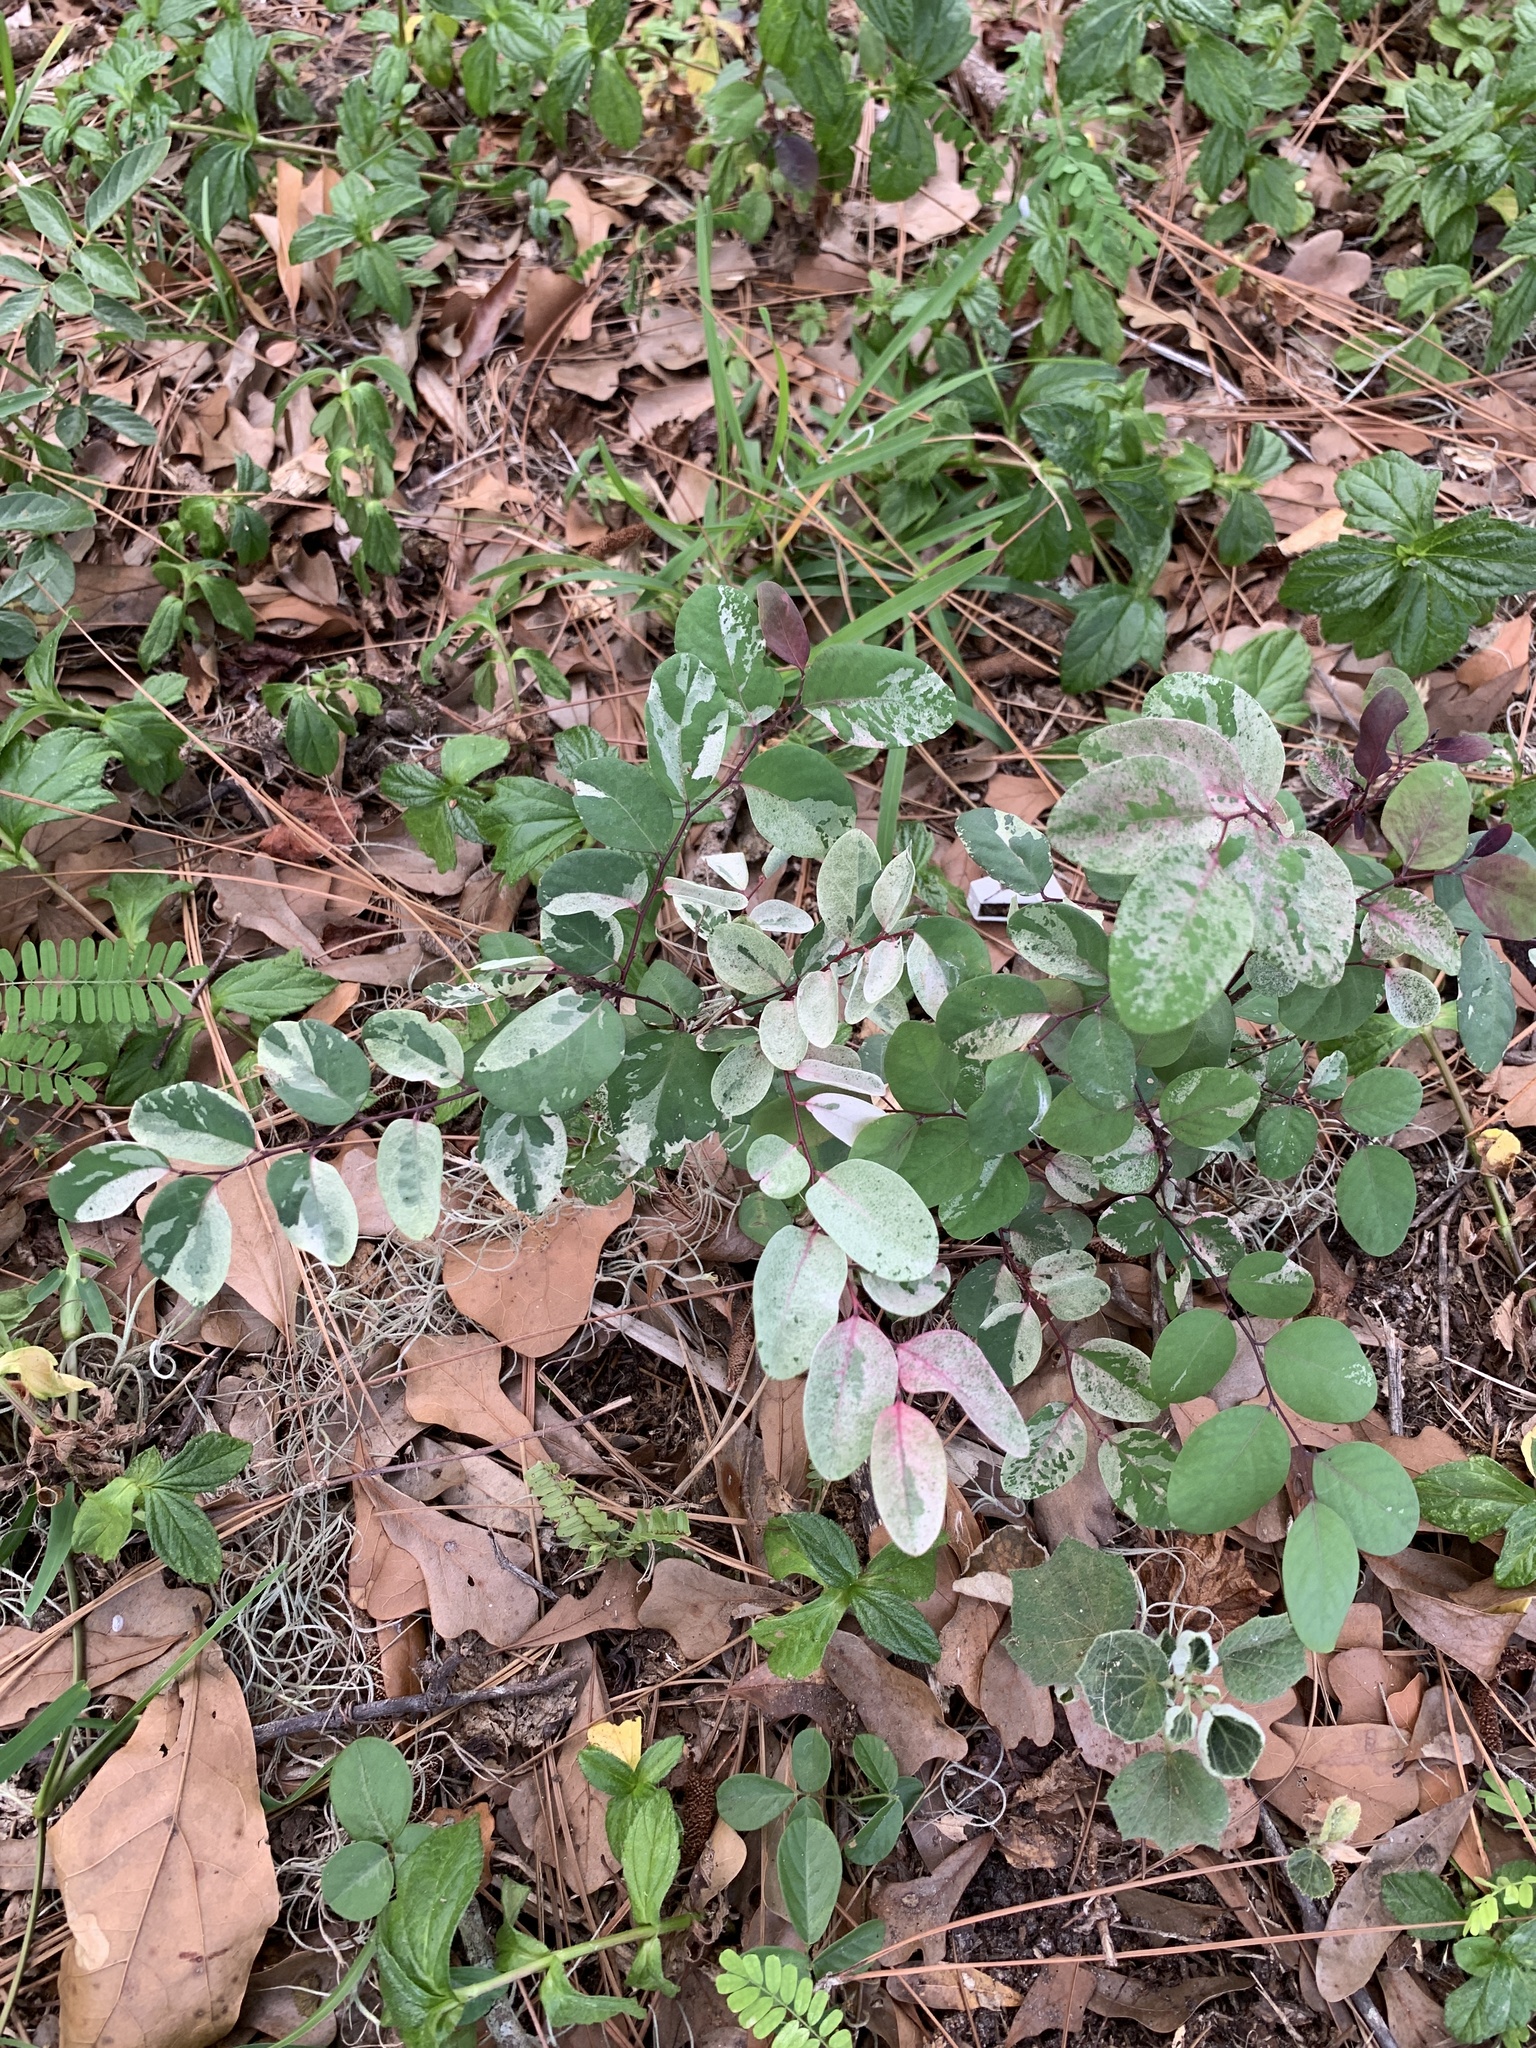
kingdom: Plantae
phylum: Tracheophyta
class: Magnoliopsida
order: Malpighiales
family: Phyllanthaceae
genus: Breynia
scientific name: Breynia disticha
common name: Snowbush
